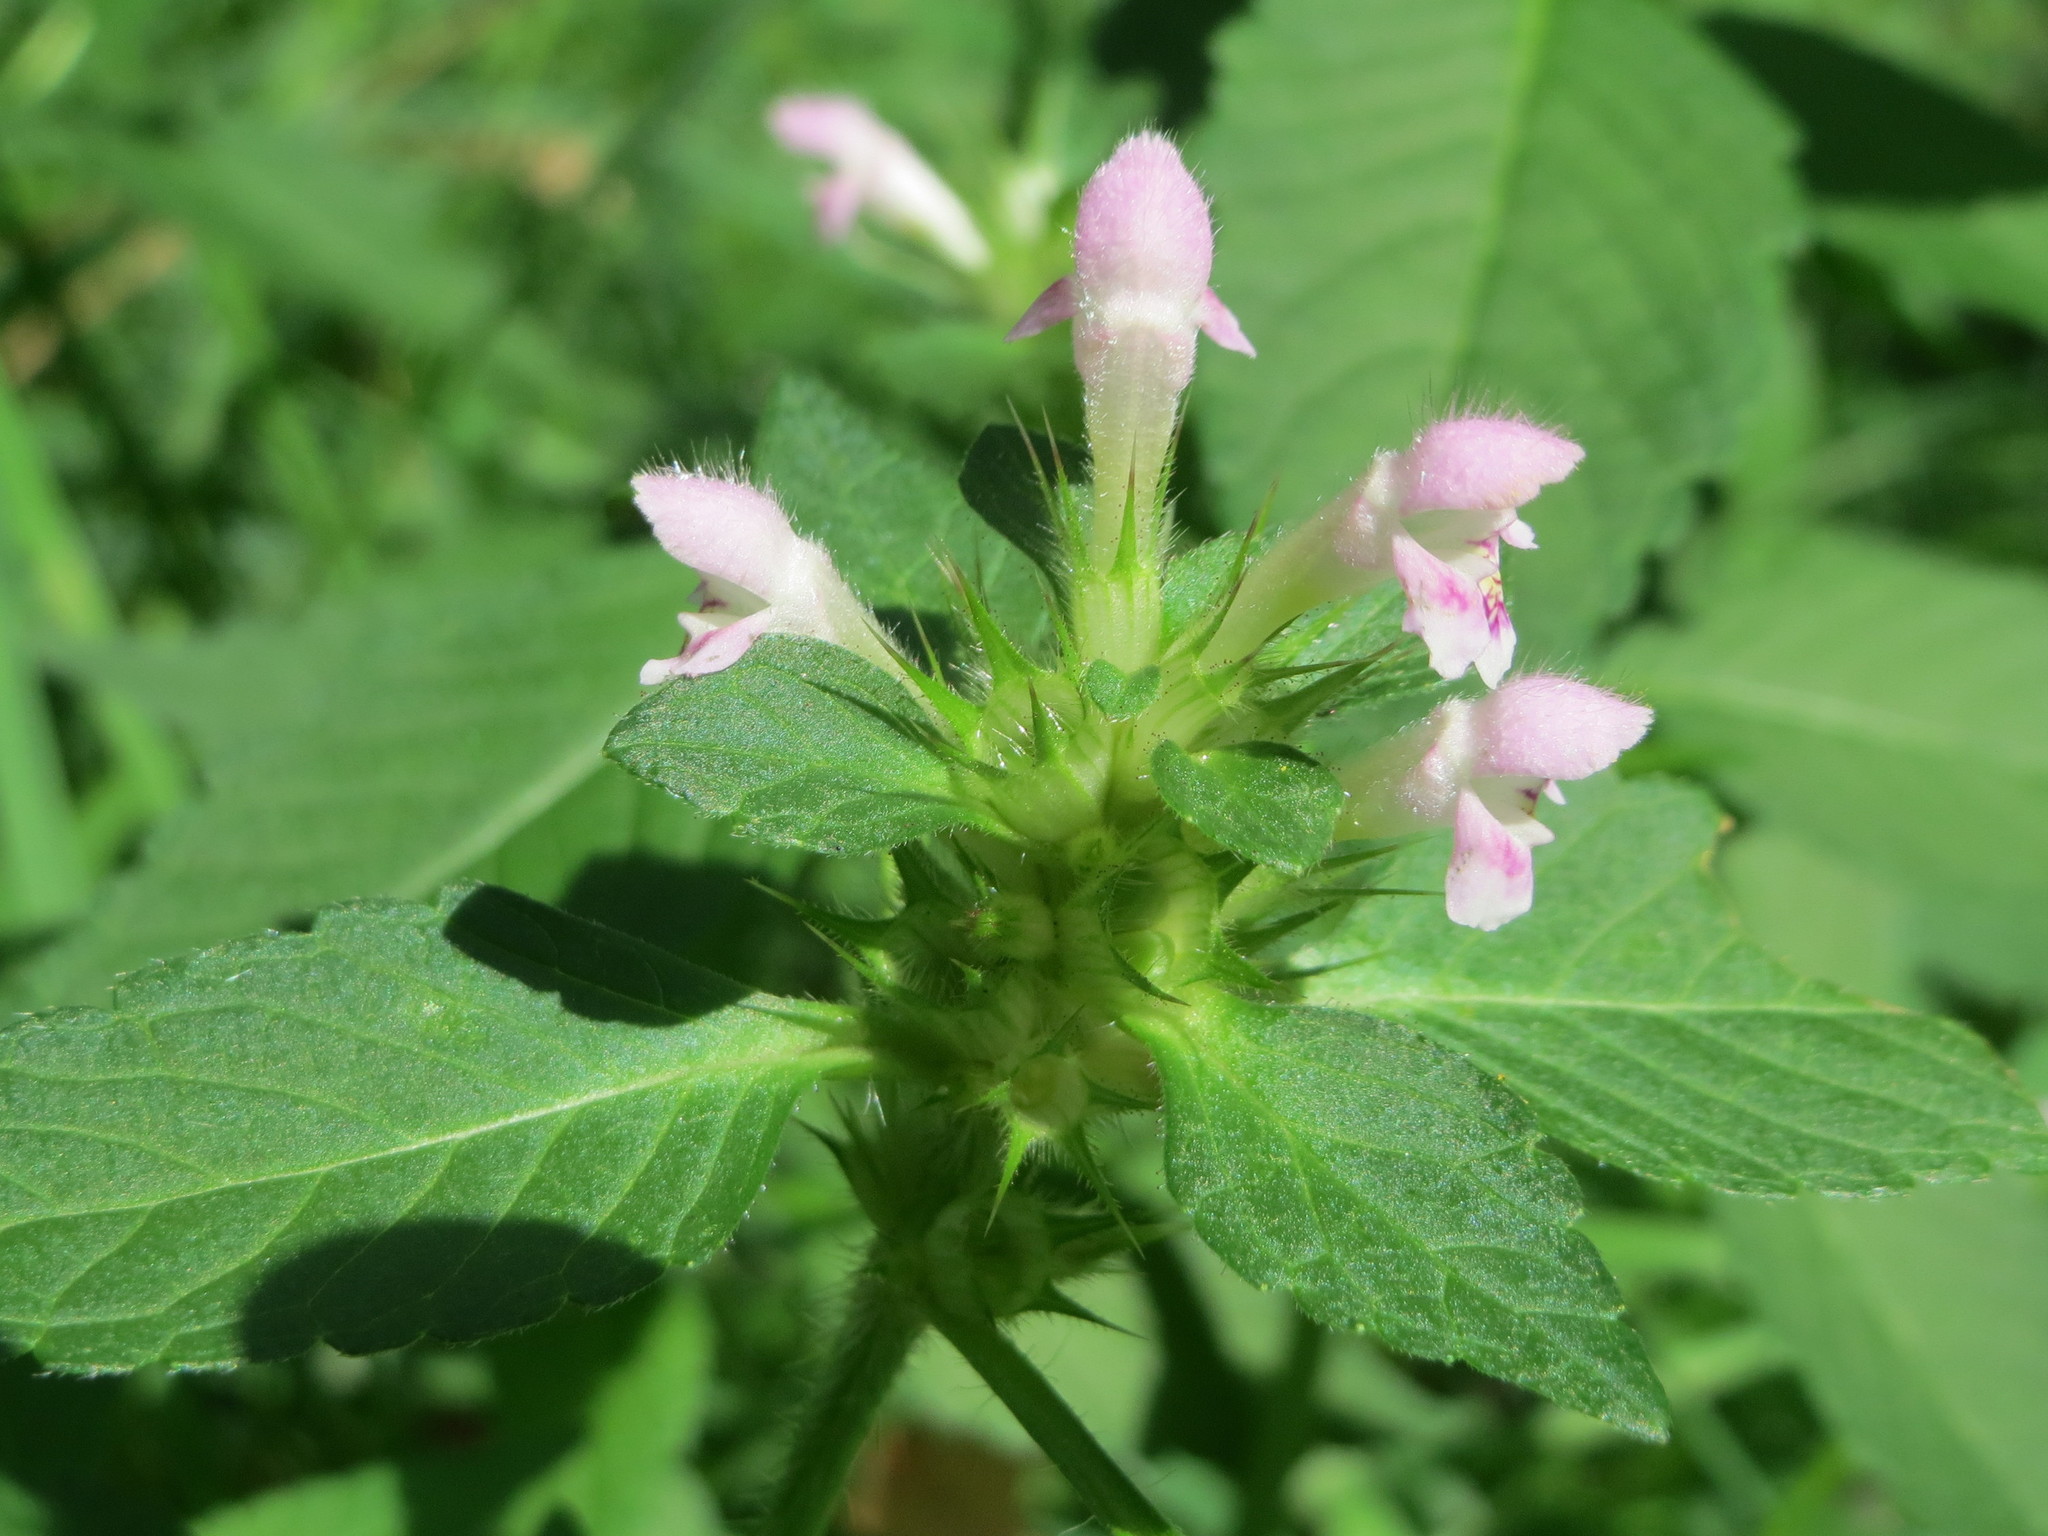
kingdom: Plantae
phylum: Tracheophyta
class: Magnoliopsida
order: Lamiales
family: Lamiaceae
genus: Galeopsis
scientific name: Galeopsis tetrahit
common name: Common hemp-nettle
